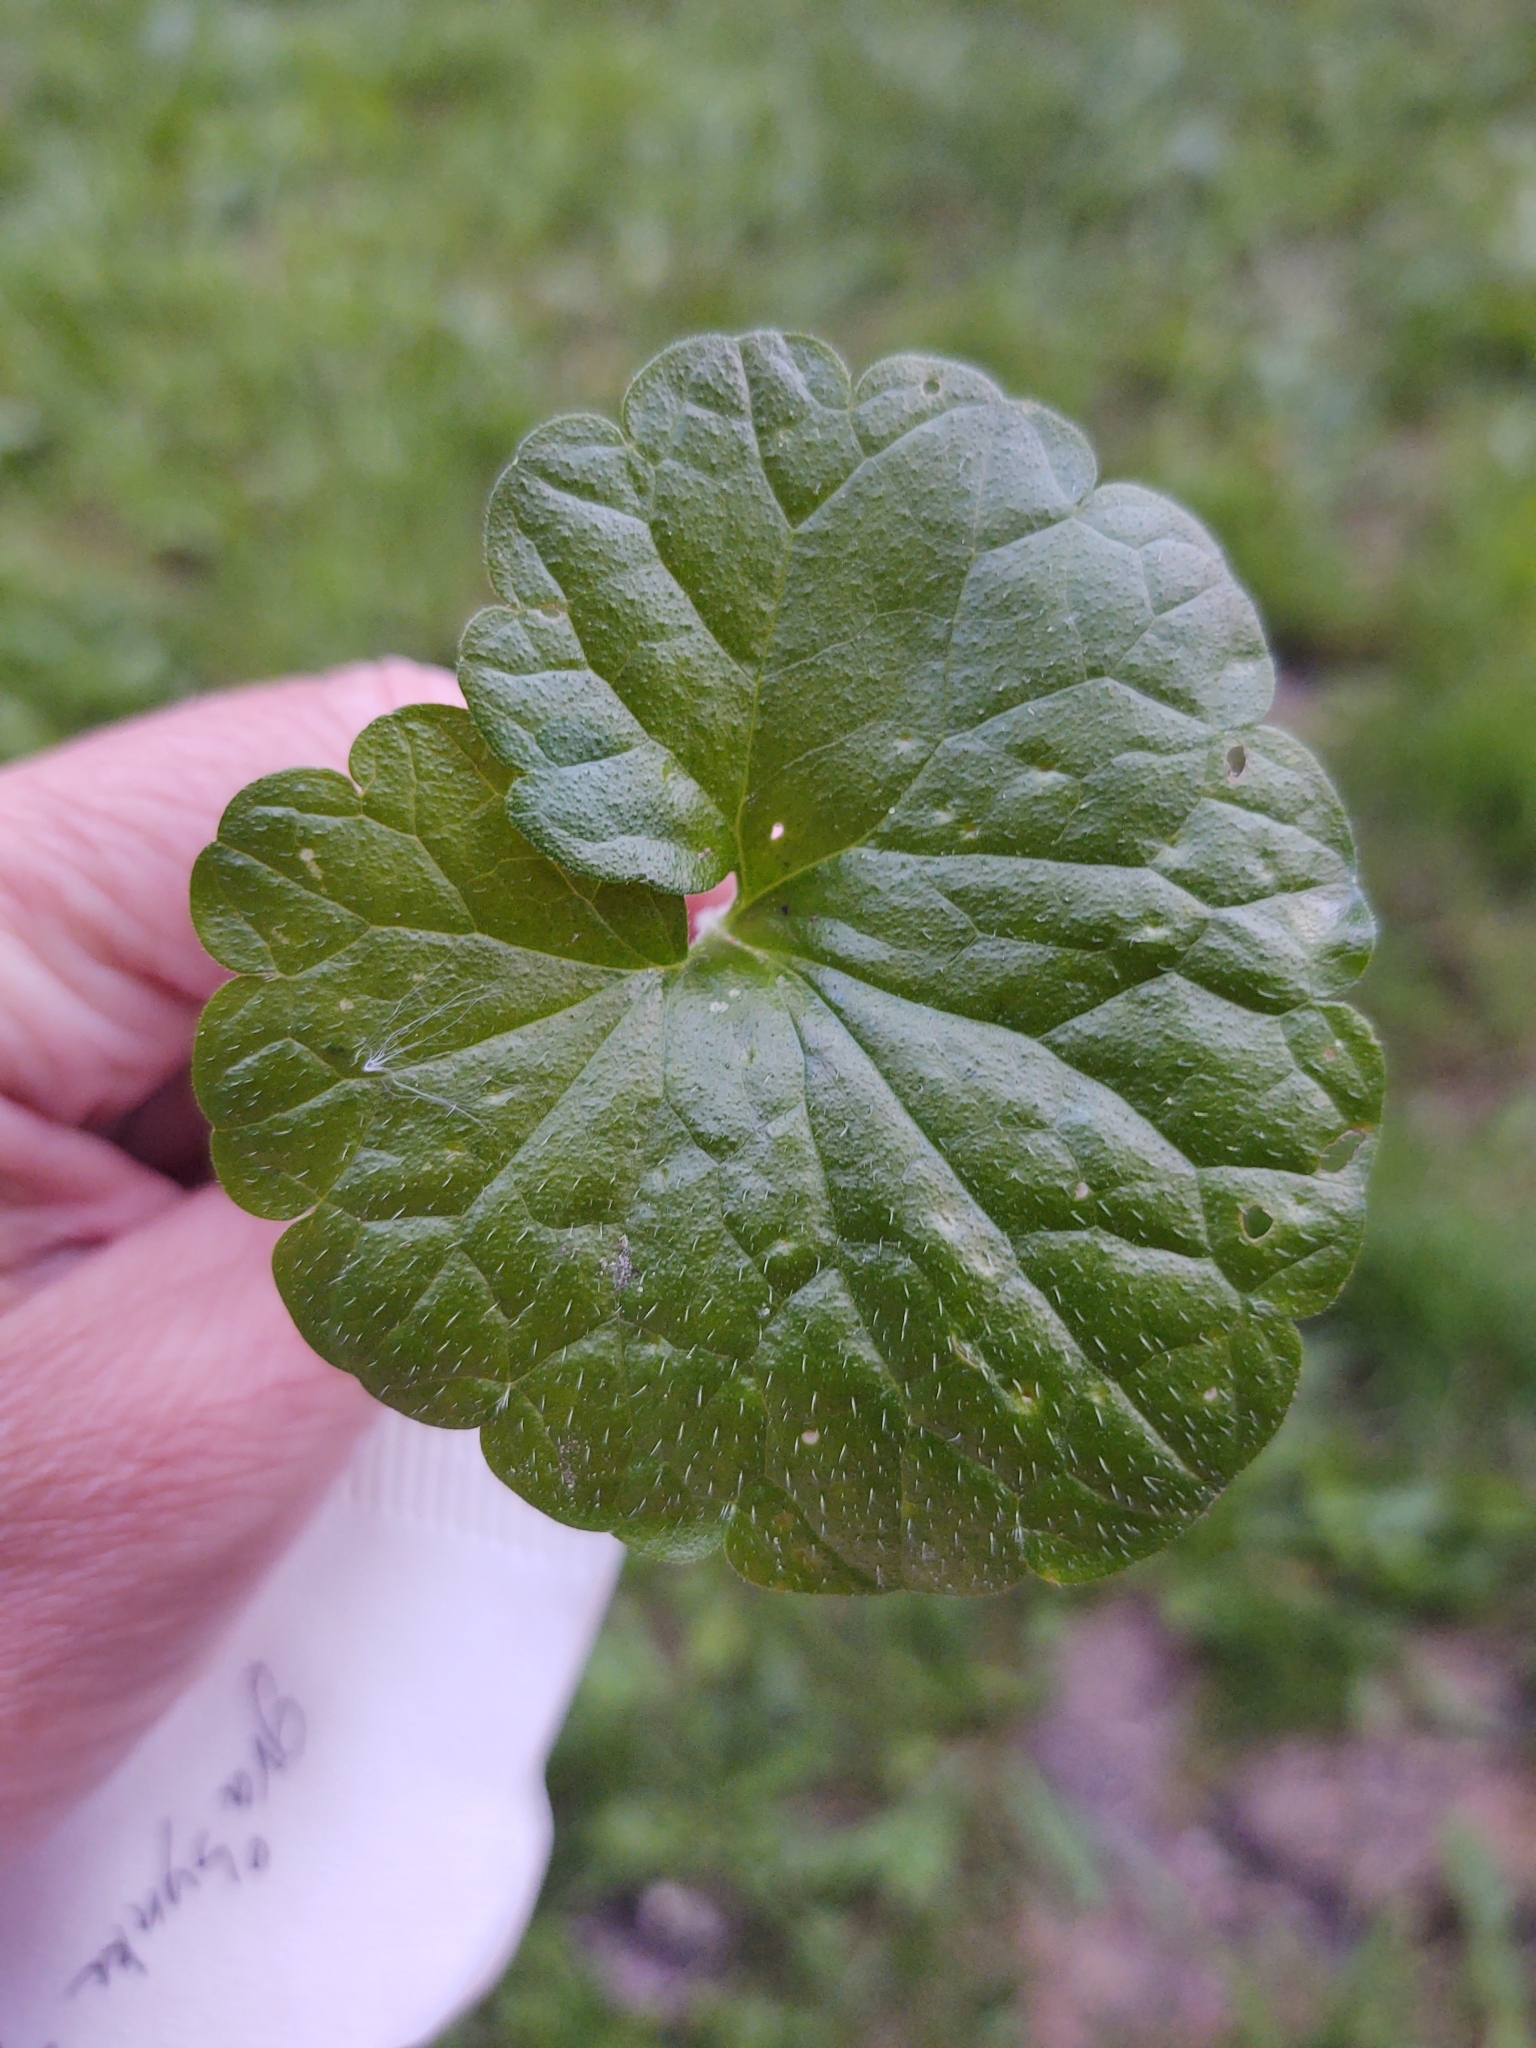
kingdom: Plantae
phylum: Tracheophyta
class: Magnoliopsida
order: Lamiales
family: Lamiaceae
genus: Glechoma
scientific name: Glechoma hederacea
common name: Ground ivy
